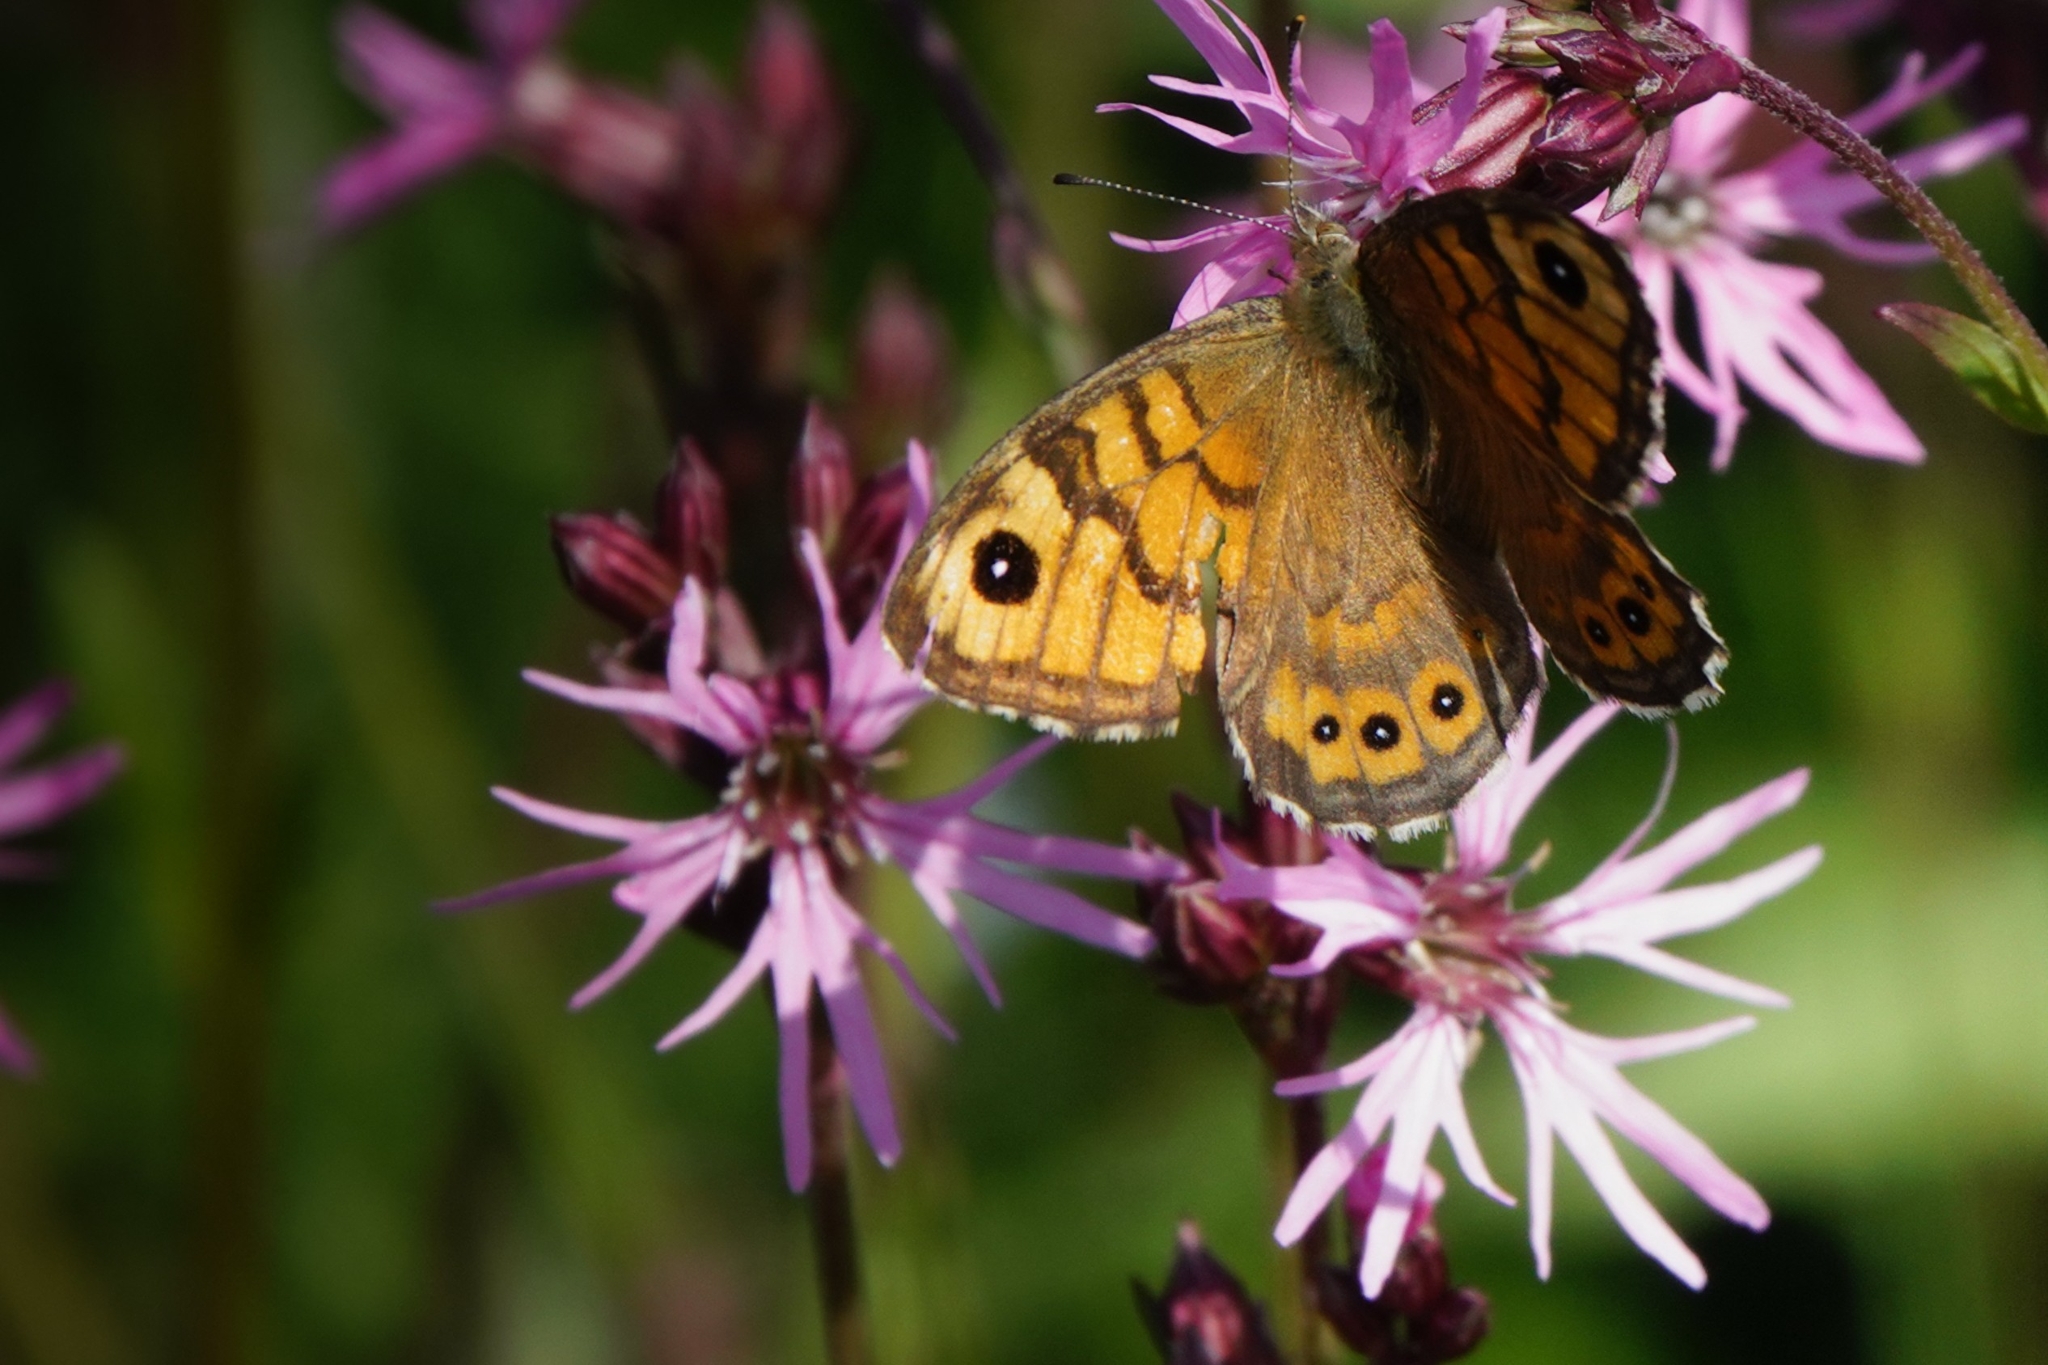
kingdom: Animalia
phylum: Arthropoda
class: Insecta
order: Lepidoptera
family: Nymphalidae
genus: Pararge
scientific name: Pararge Lasiommata megera
